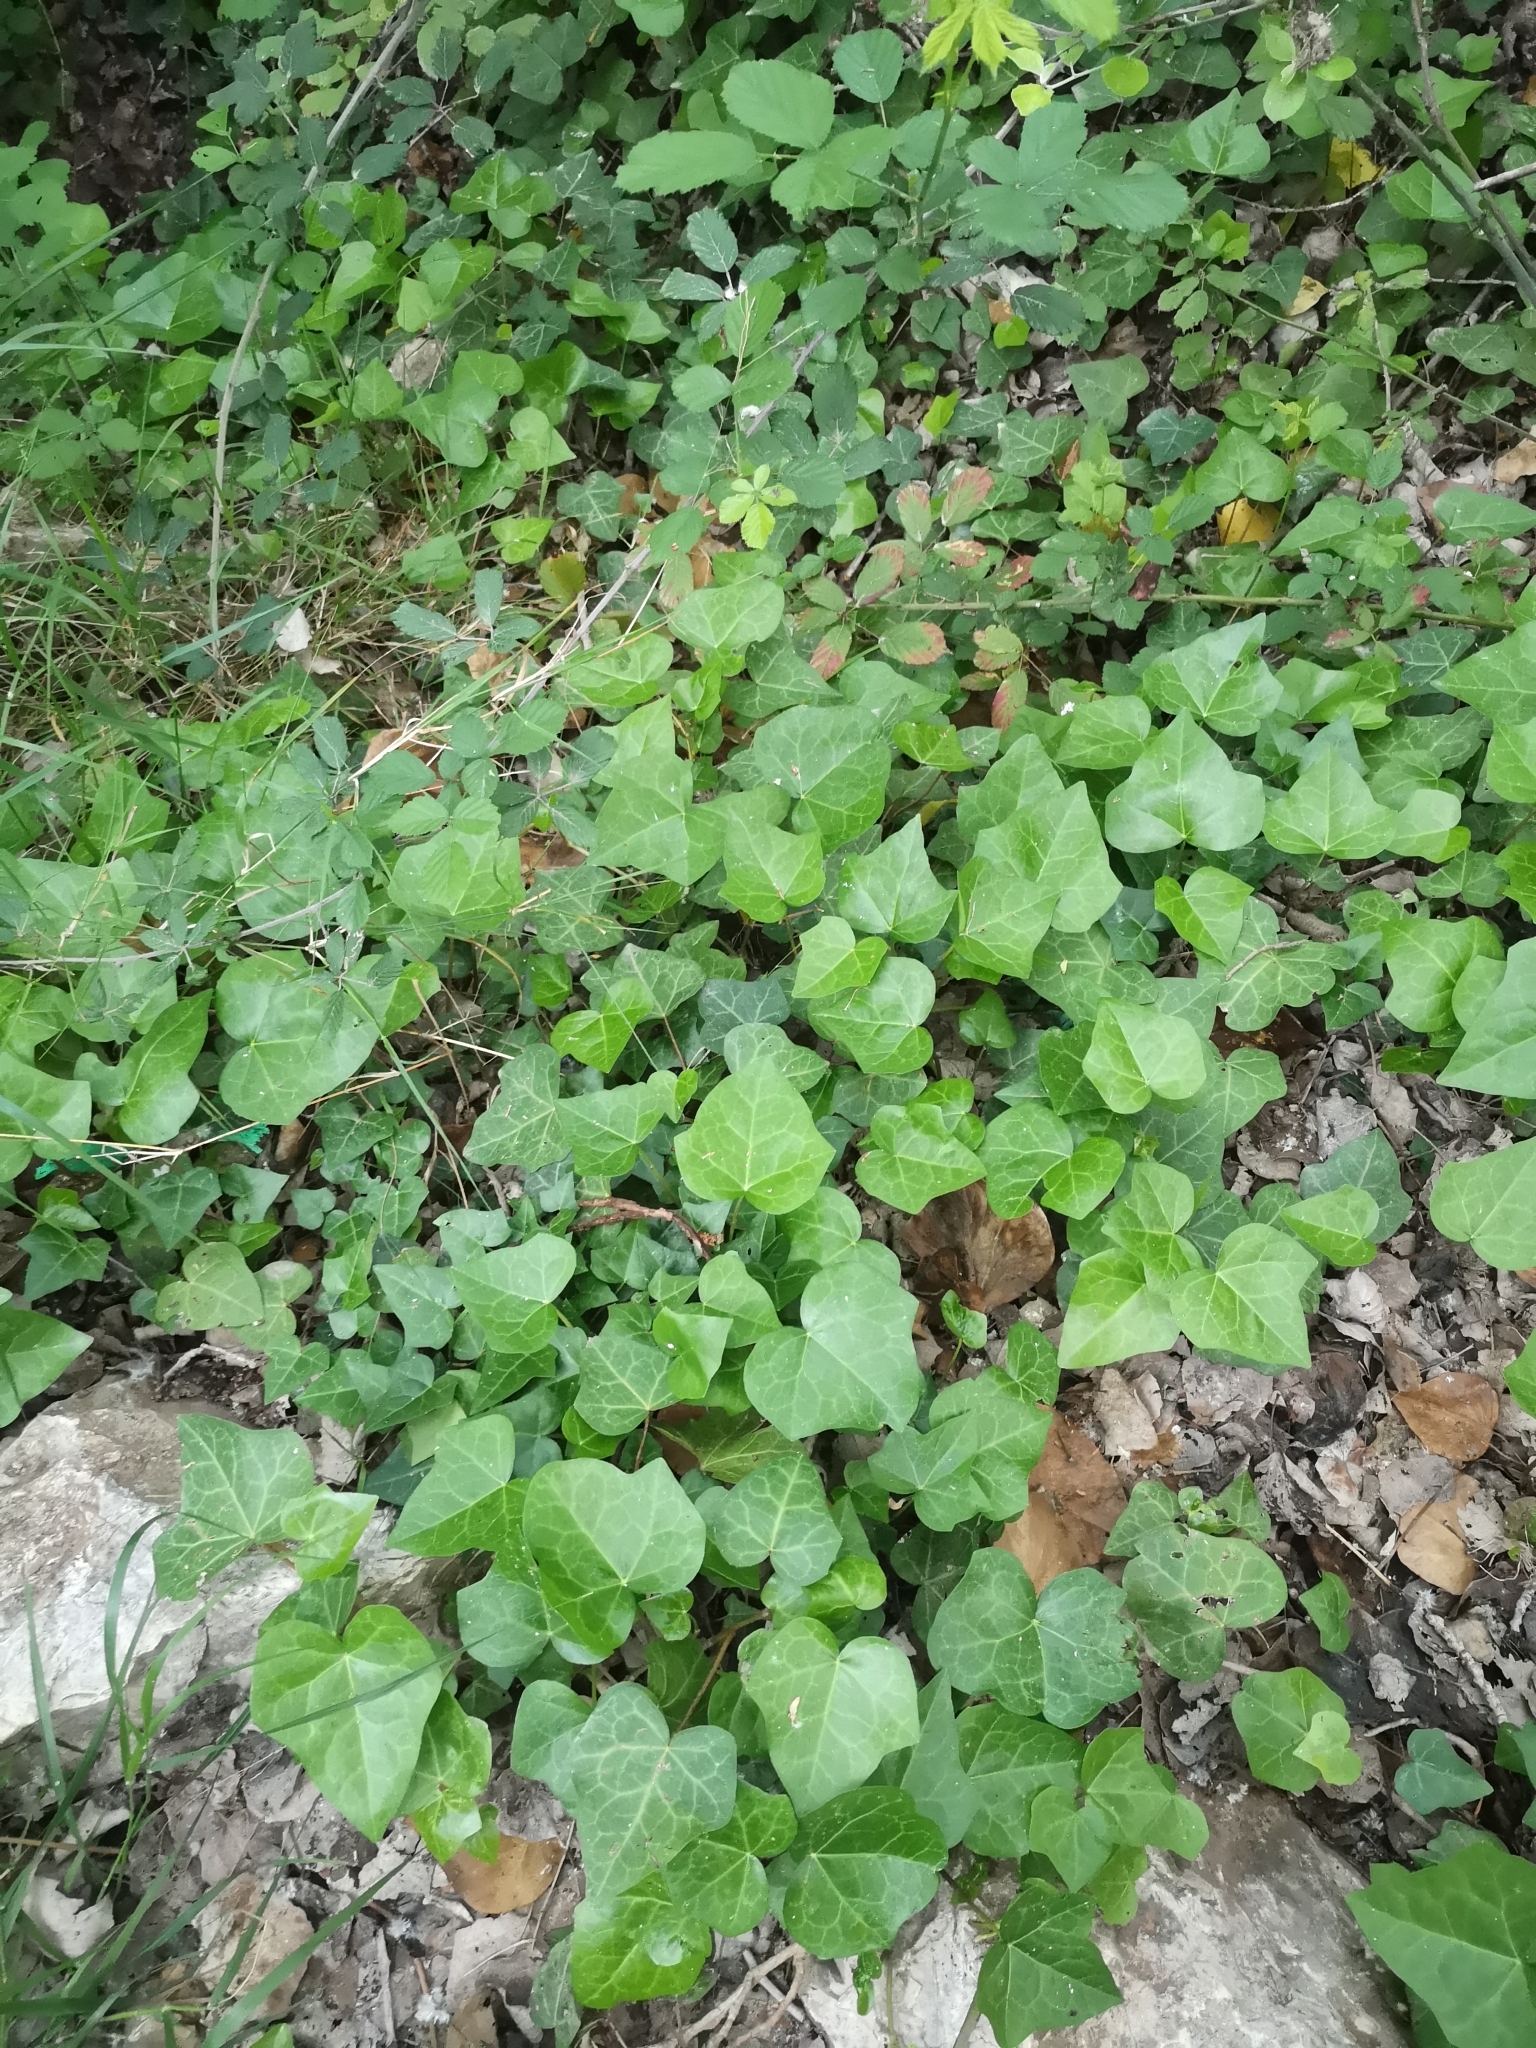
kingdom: Plantae
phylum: Tracheophyta
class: Magnoliopsida
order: Apiales
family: Araliaceae
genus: Hedera
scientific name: Hedera helix
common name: Ivy
